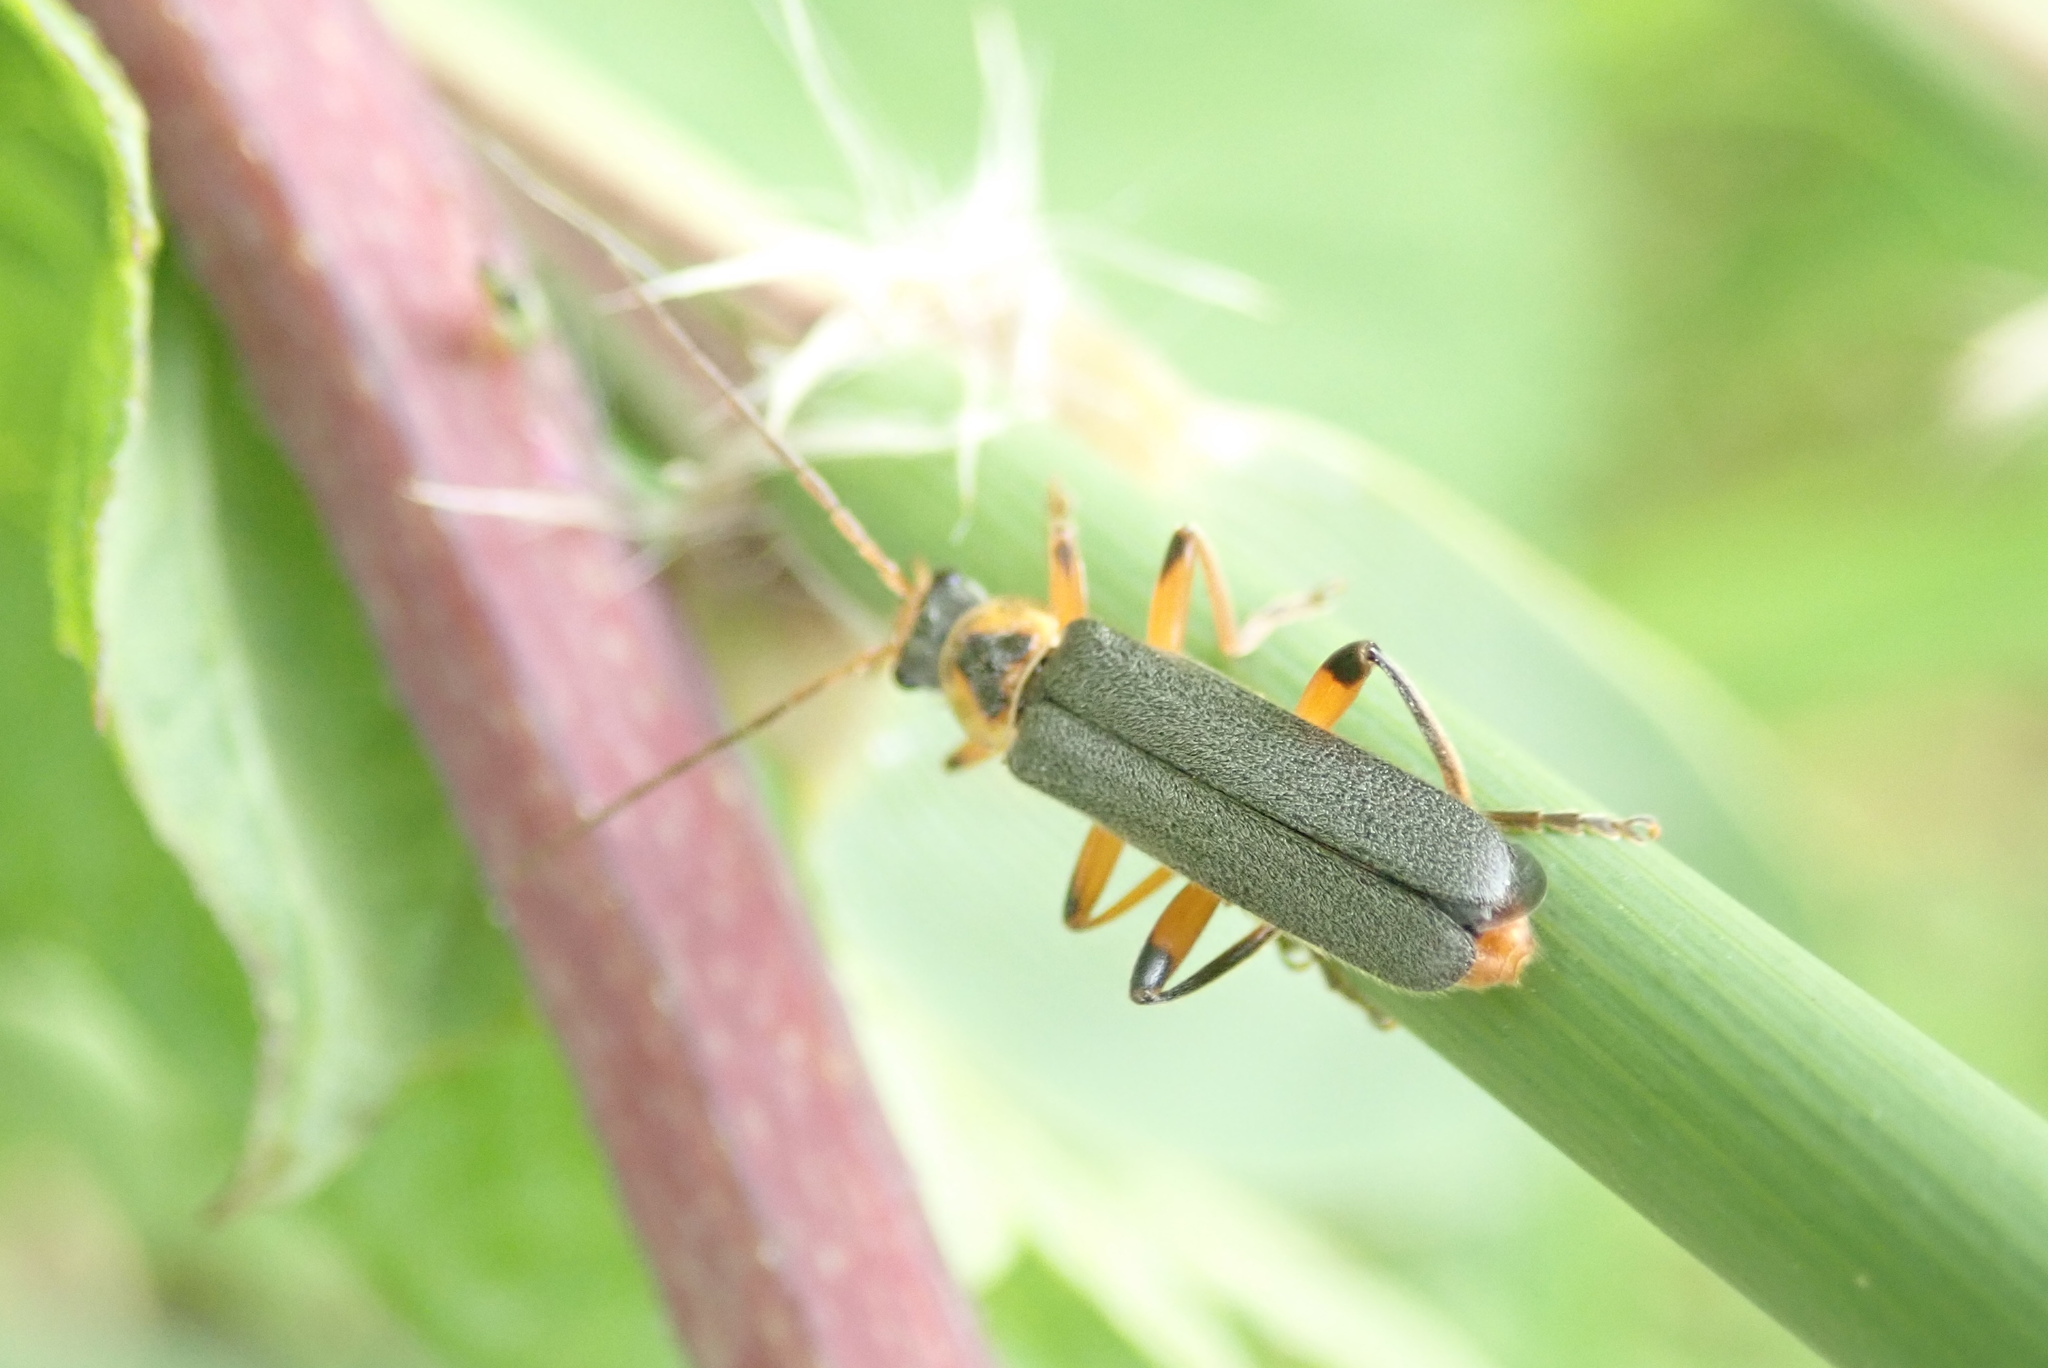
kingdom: Animalia
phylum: Arthropoda
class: Insecta
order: Coleoptera
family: Cantharidae
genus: Cantharis
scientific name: Cantharis nigricans
